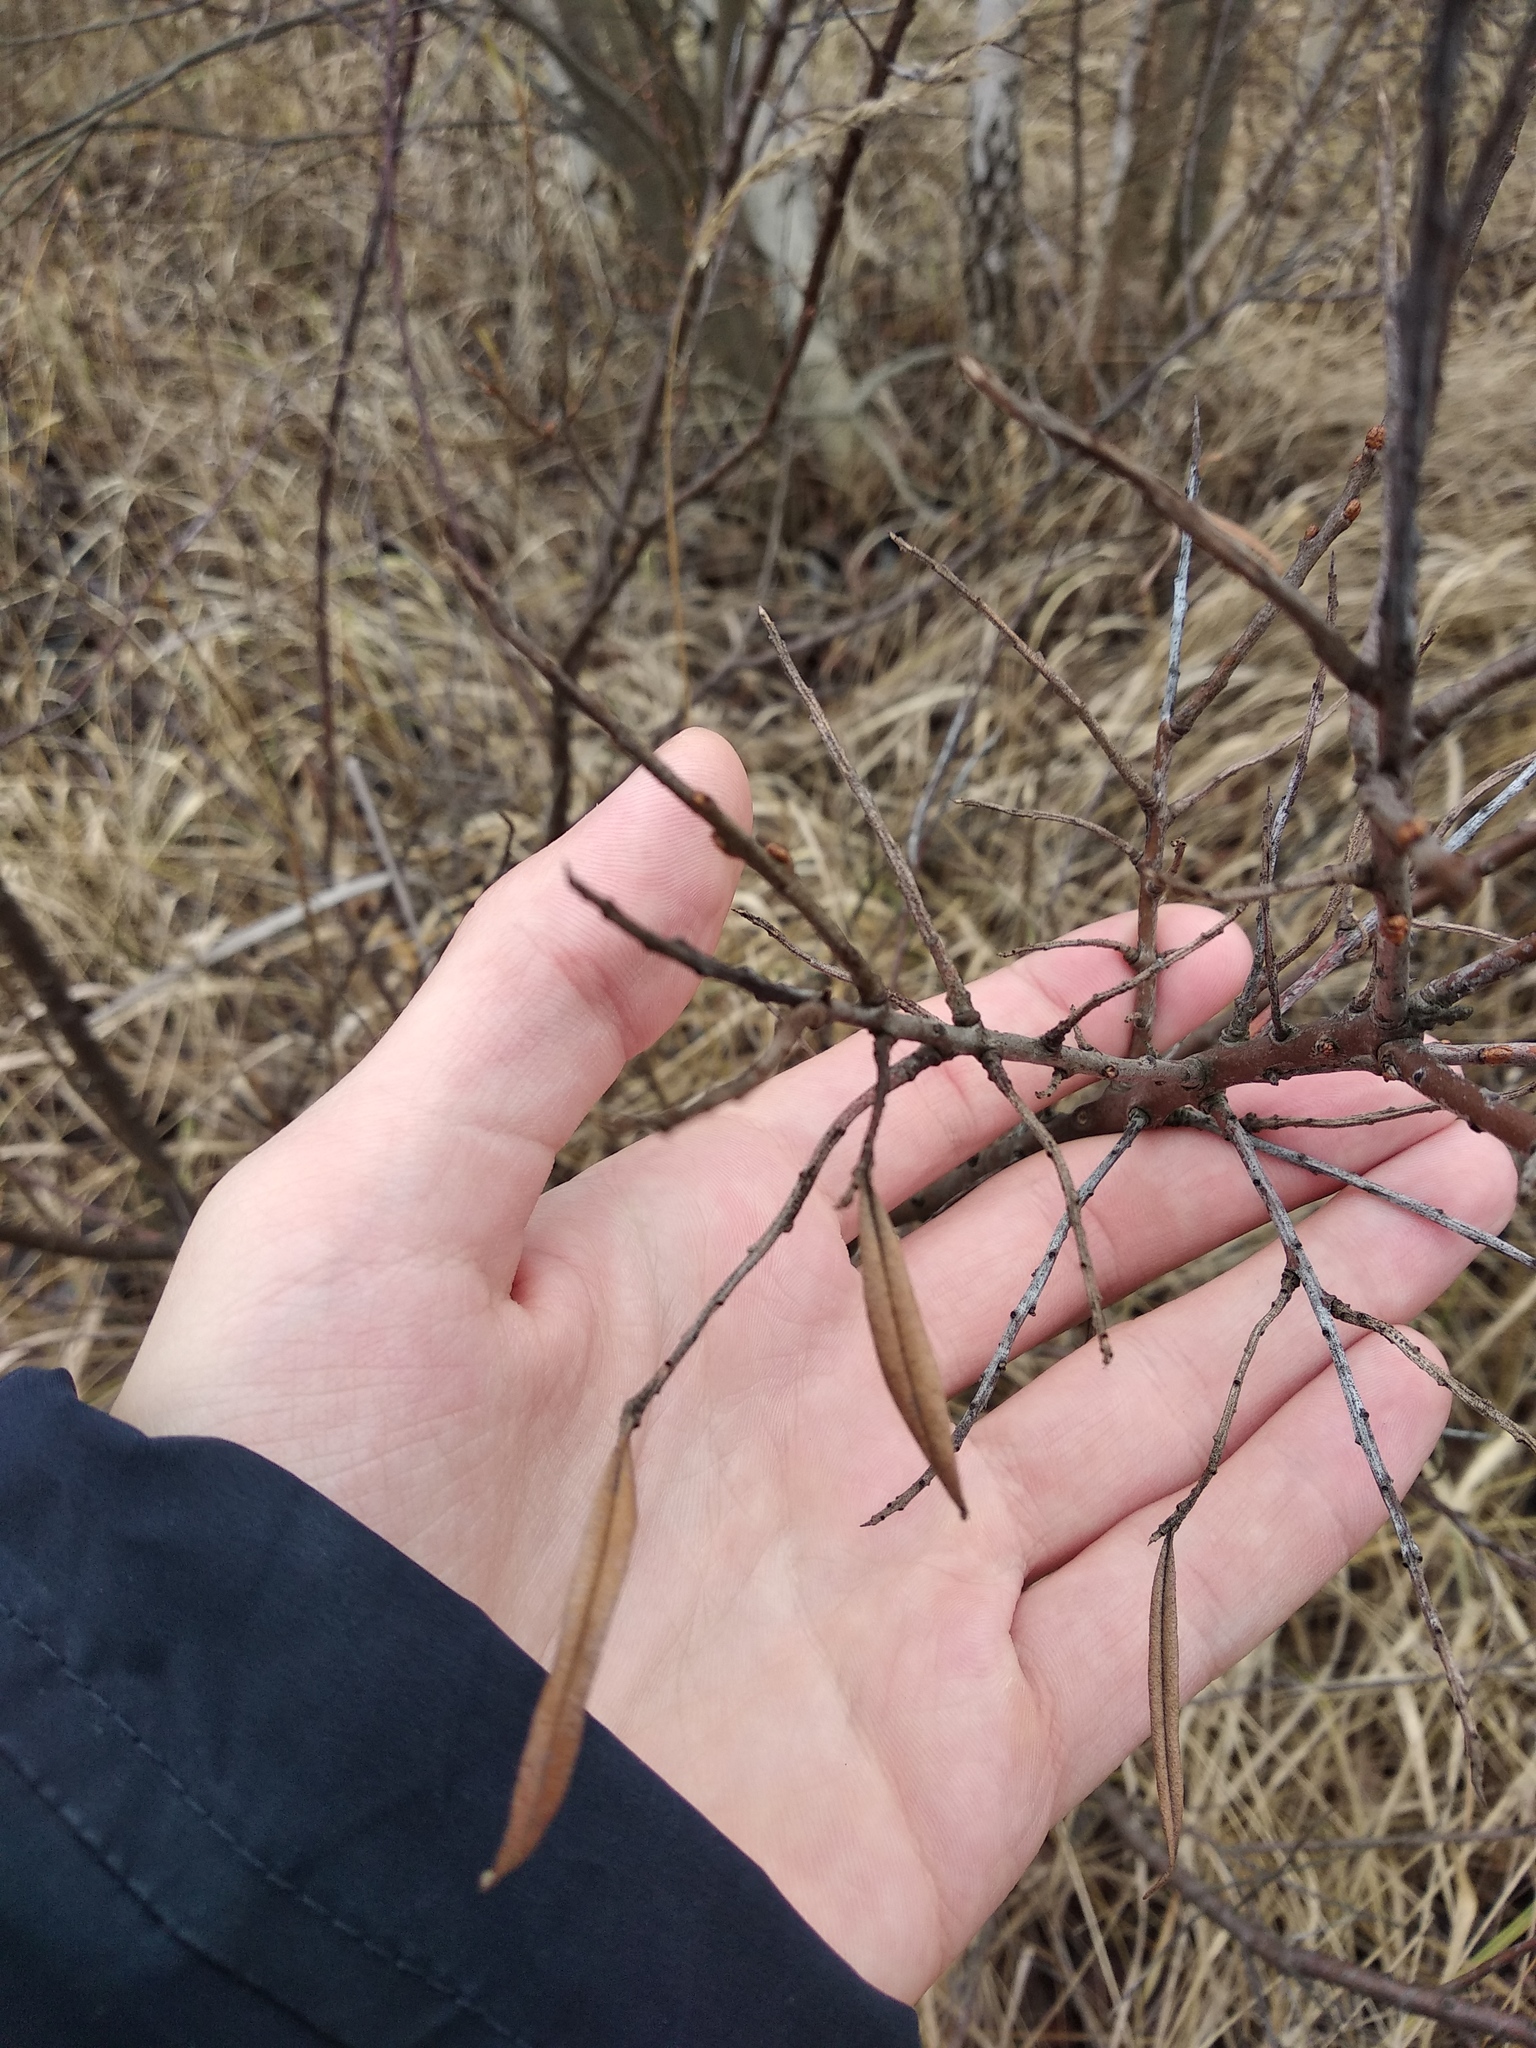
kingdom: Plantae
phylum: Tracheophyta
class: Magnoliopsida
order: Rosales
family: Elaeagnaceae
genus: Hippophae
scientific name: Hippophae rhamnoides
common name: Sea-buckthorn
